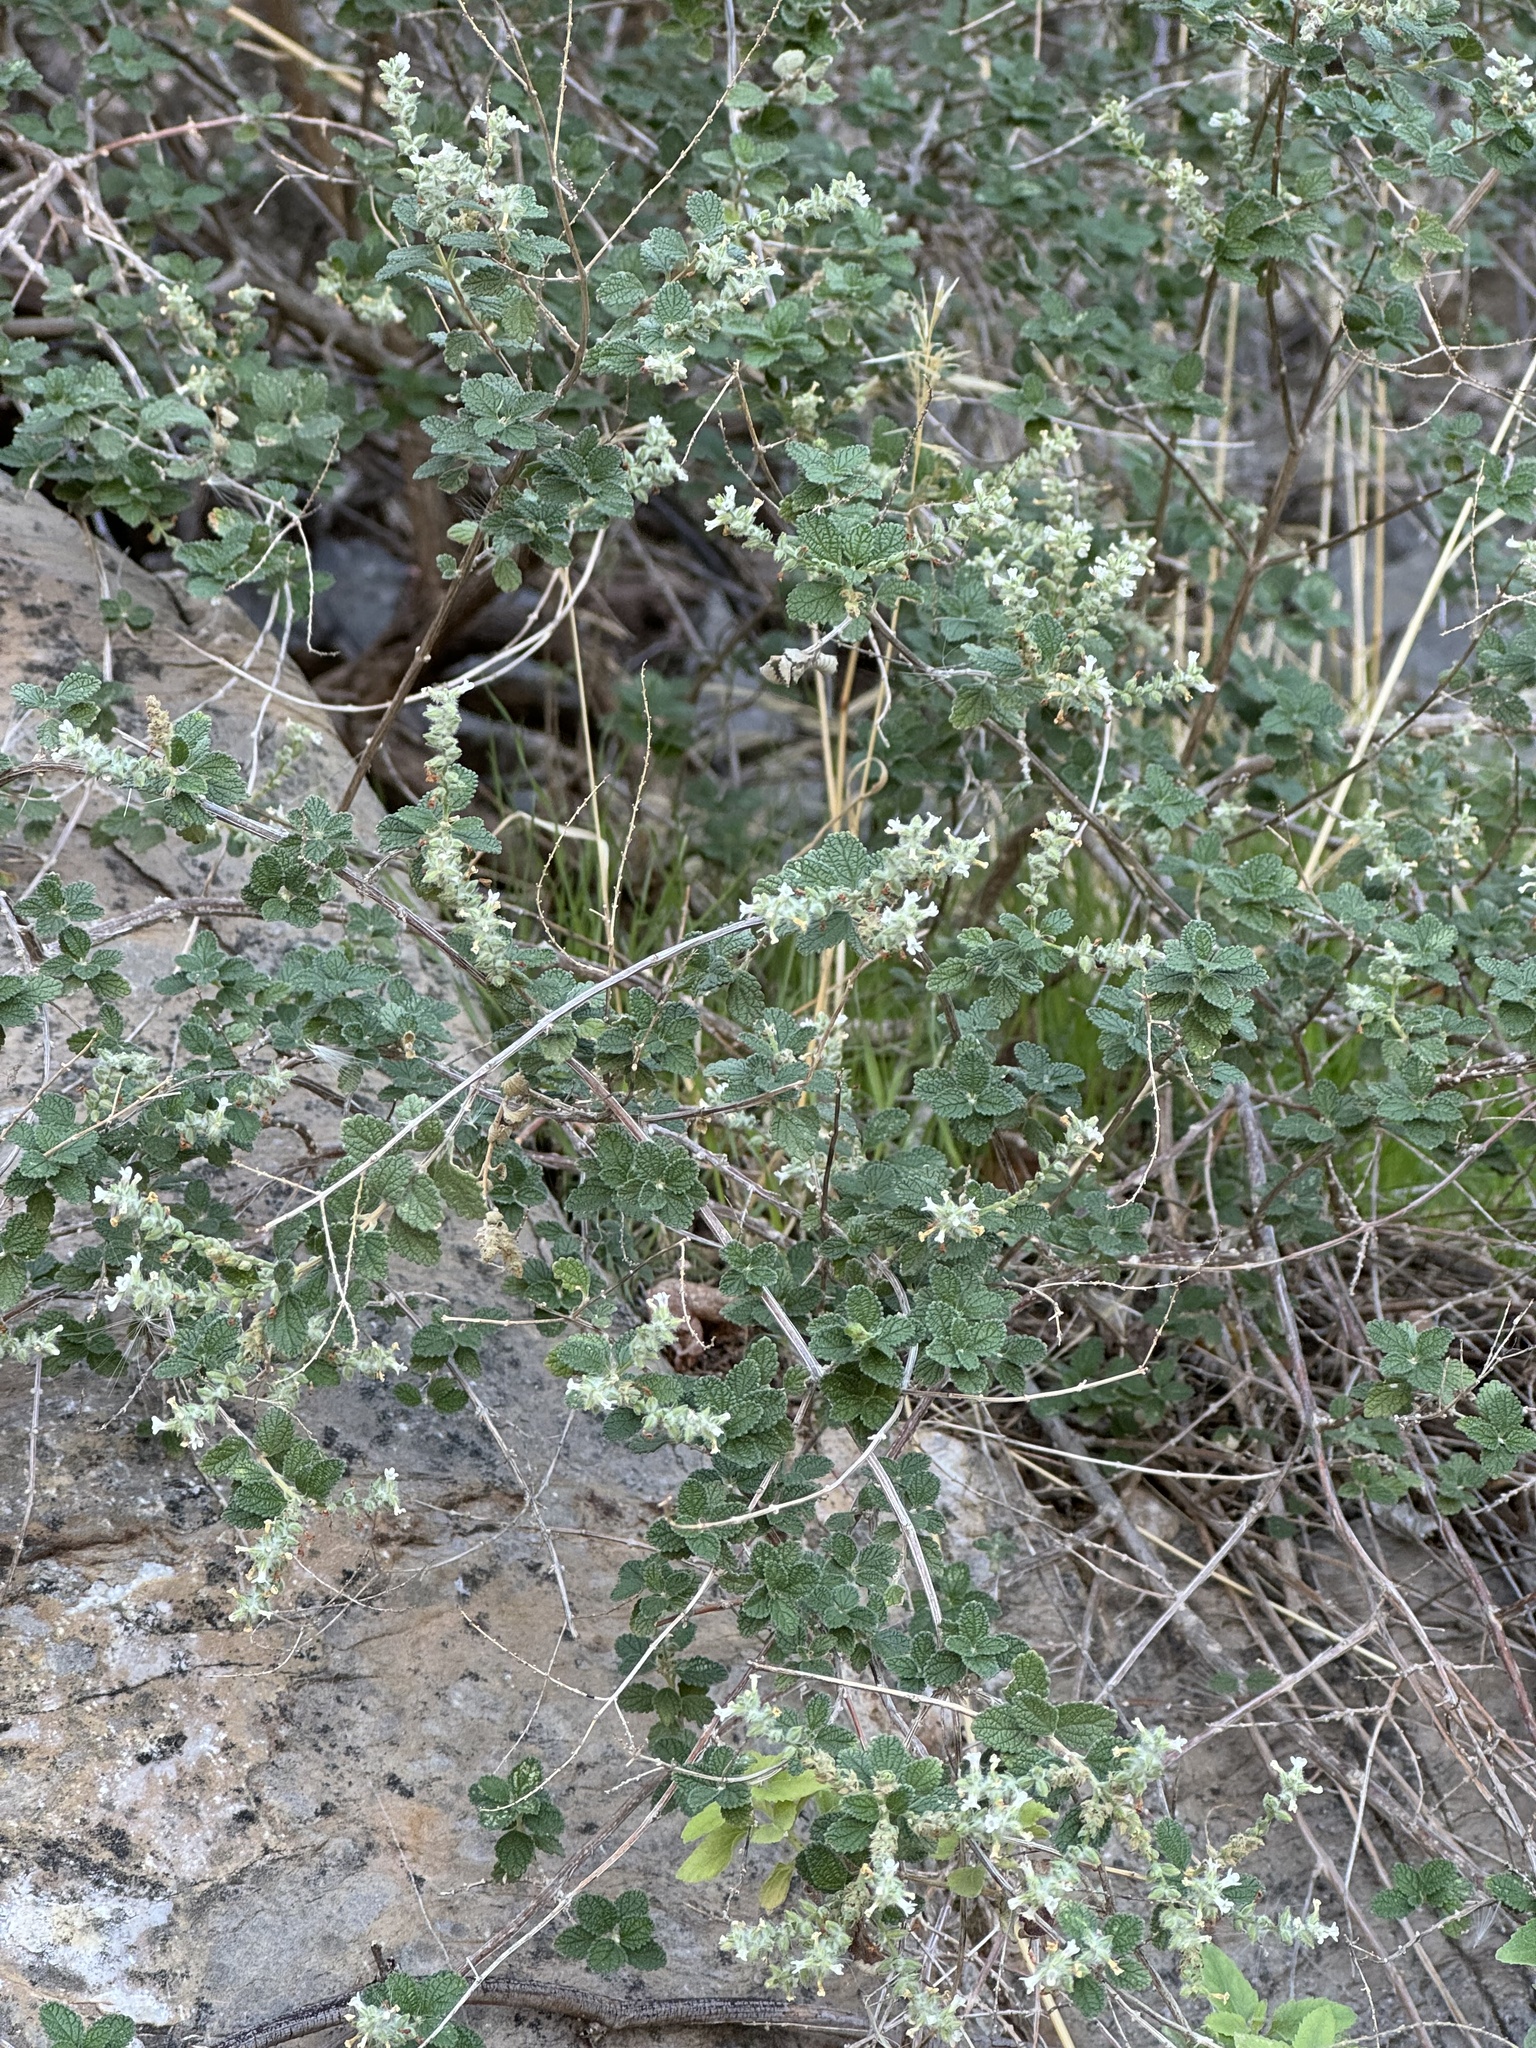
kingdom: Plantae
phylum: Tracheophyta
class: Magnoliopsida
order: Lamiales
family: Verbenaceae
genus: Aloysia
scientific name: Aloysia wrightii
